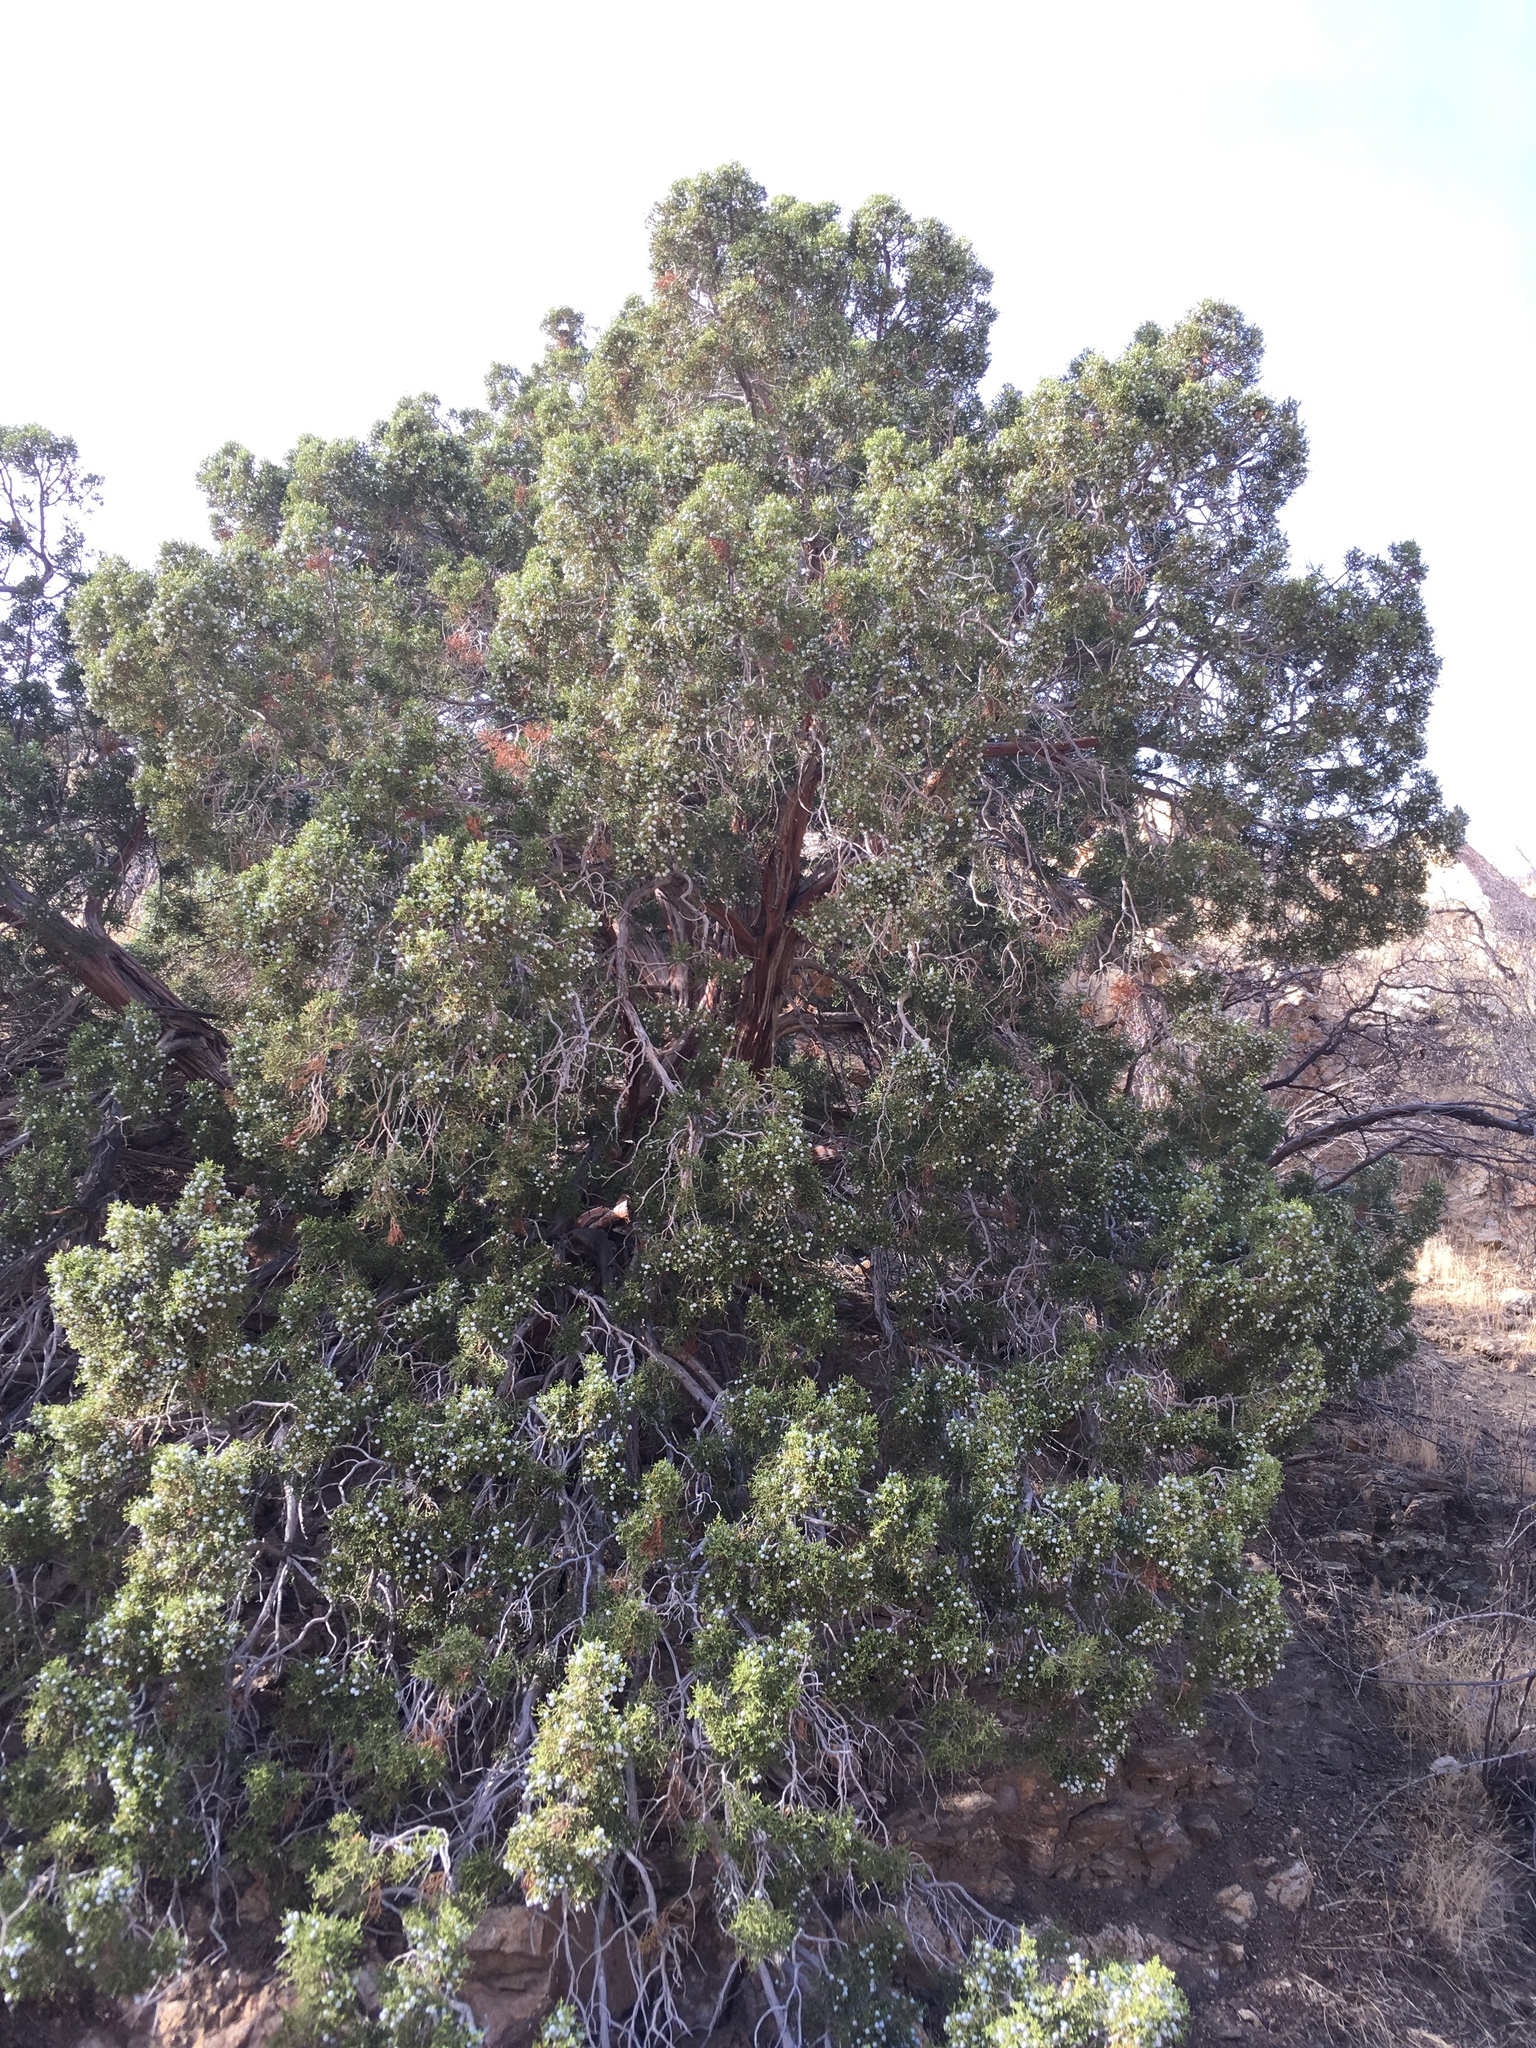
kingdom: Plantae
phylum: Tracheophyta
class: Pinopsida
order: Pinales
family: Cupressaceae
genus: Juniperus
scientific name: Juniperus californica
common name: California juniper
